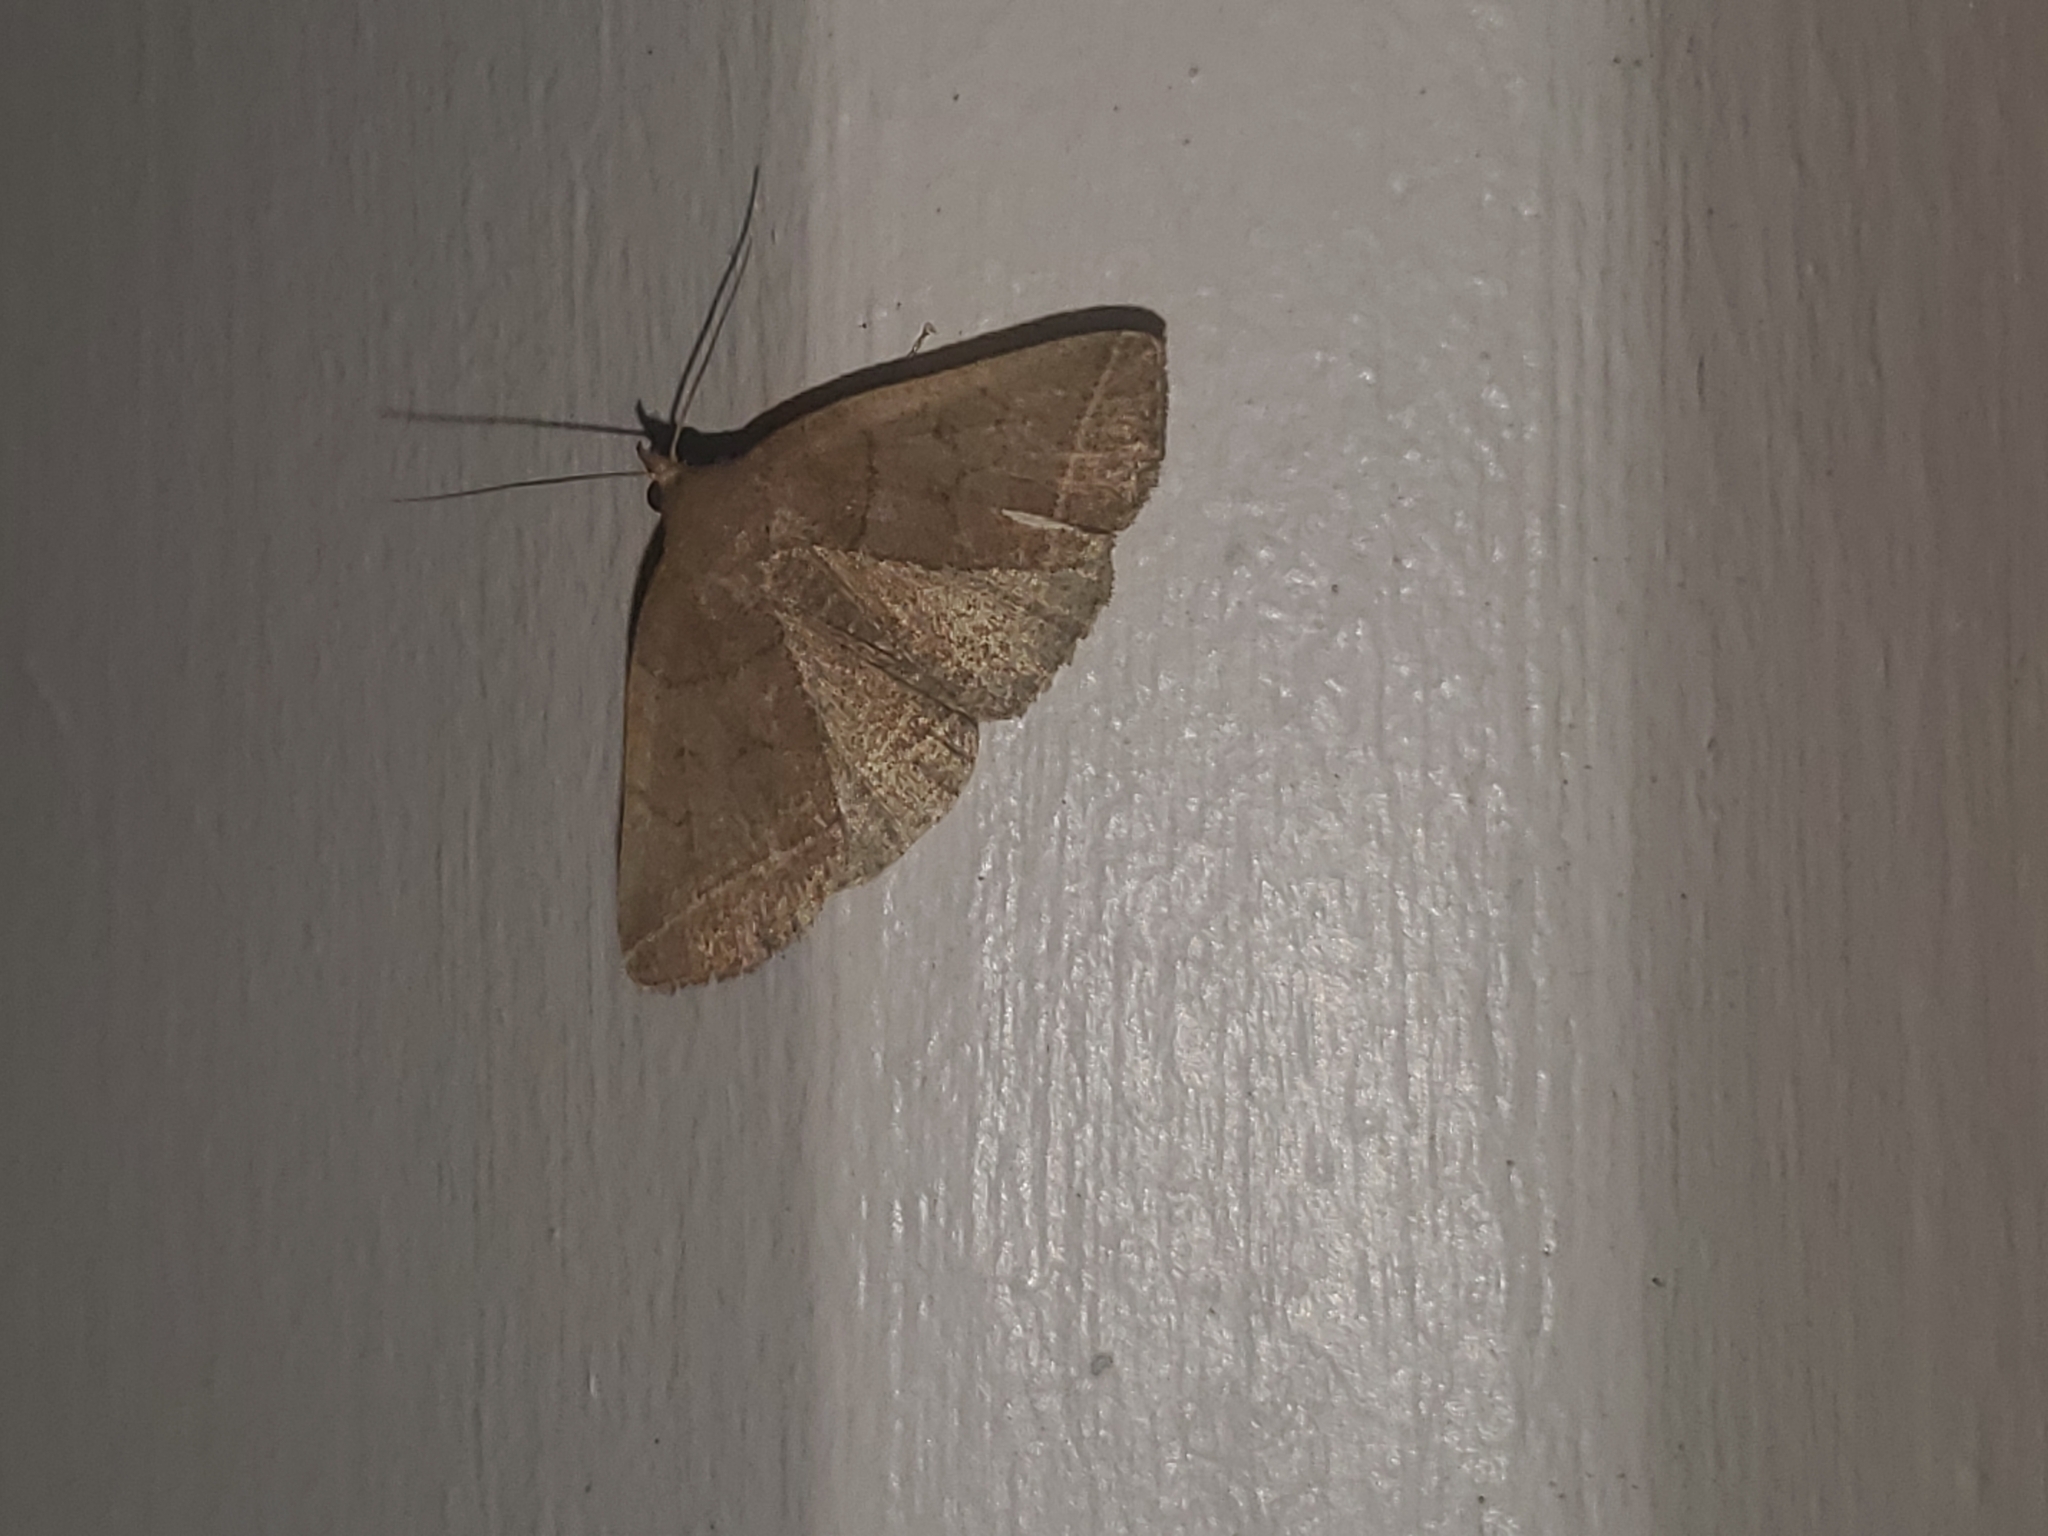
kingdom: Animalia
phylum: Arthropoda
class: Insecta
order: Lepidoptera
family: Erebidae
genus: Zanclognatha
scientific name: Zanclognatha obscuripennis
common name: Dark fan-foot
